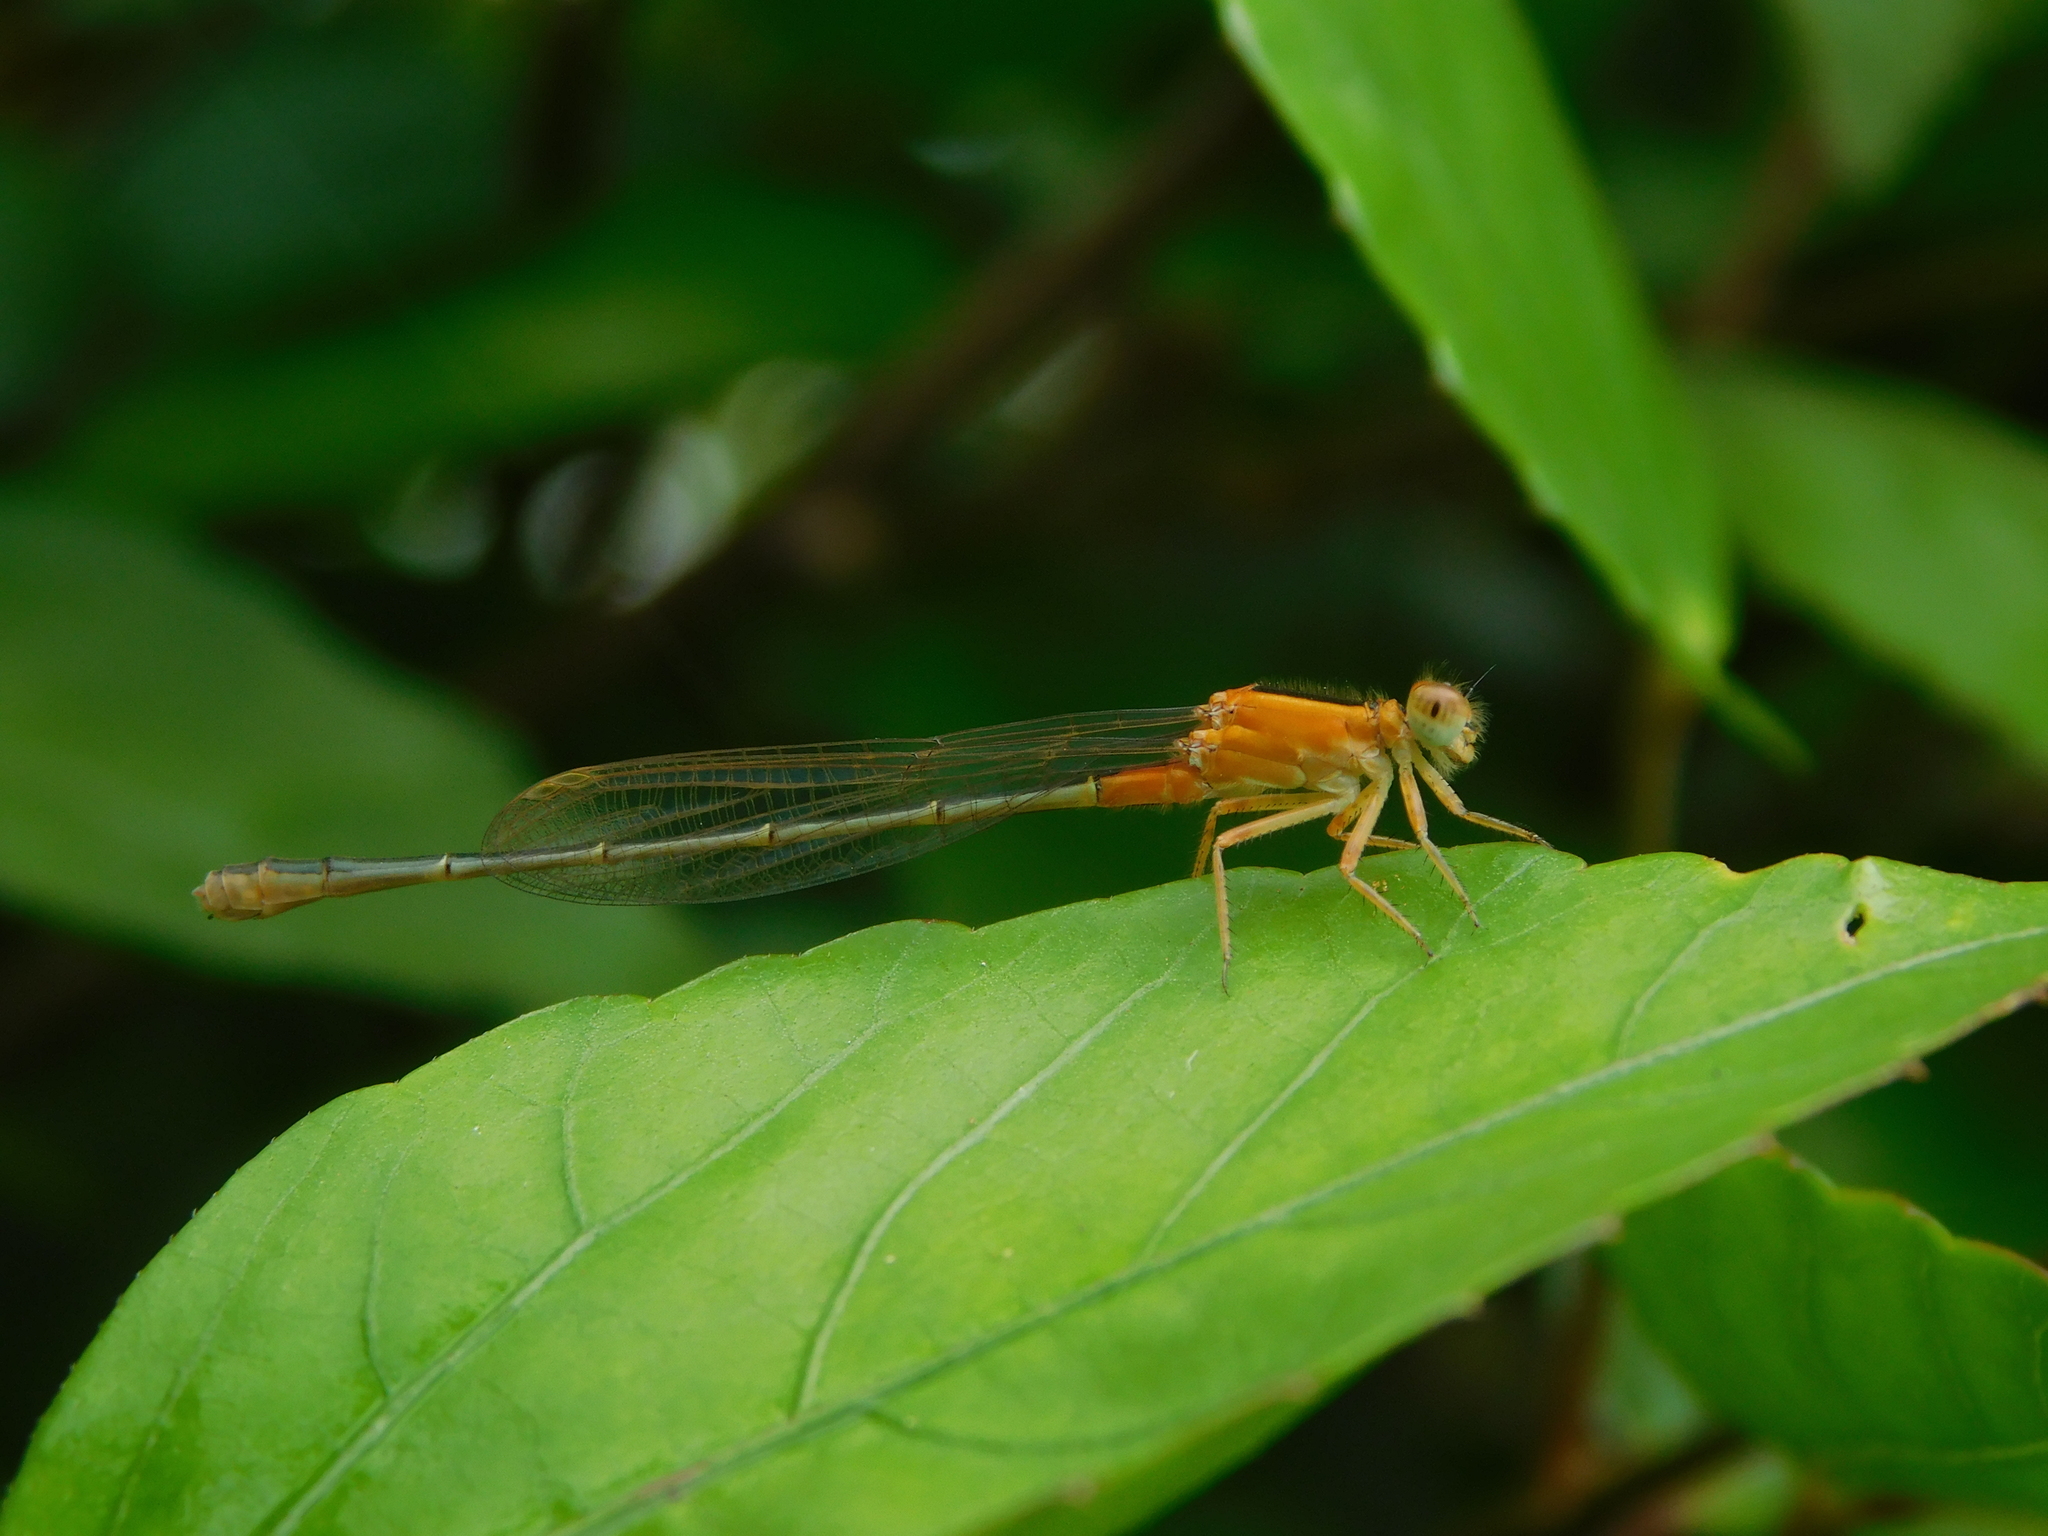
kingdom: Animalia
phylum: Arthropoda
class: Insecta
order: Odonata
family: Coenagrionidae
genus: Ischnura
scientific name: Ischnura senegalensis
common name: Tropical bluetail
